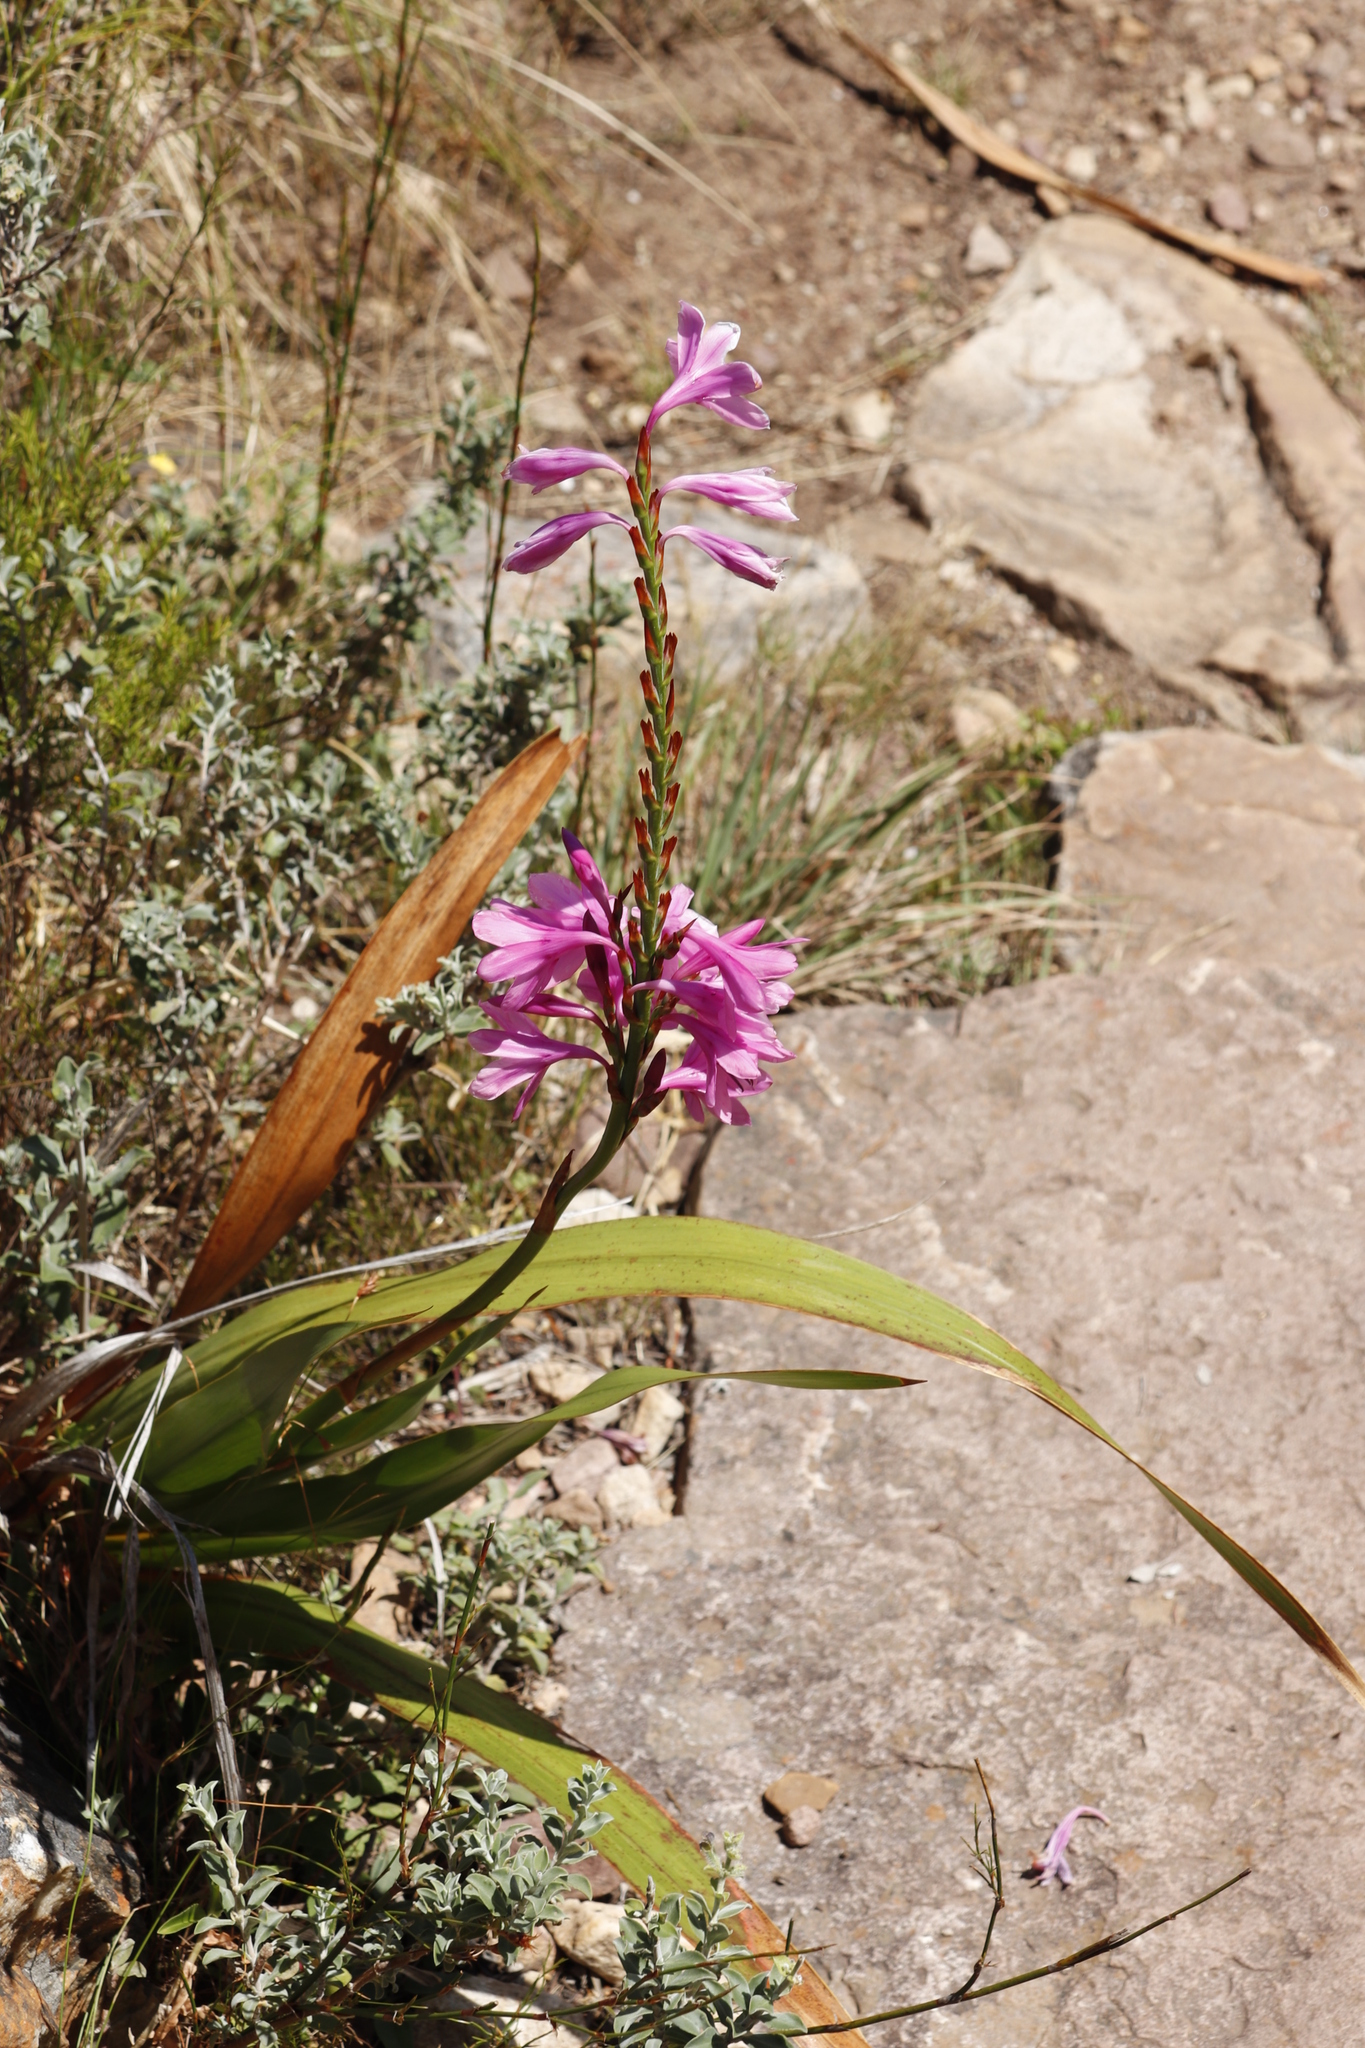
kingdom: Plantae
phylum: Tracheophyta
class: Liliopsida
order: Asparagales
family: Iridaceae
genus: Watsonia
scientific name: Watsonia borbonica
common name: Bugle-lily
